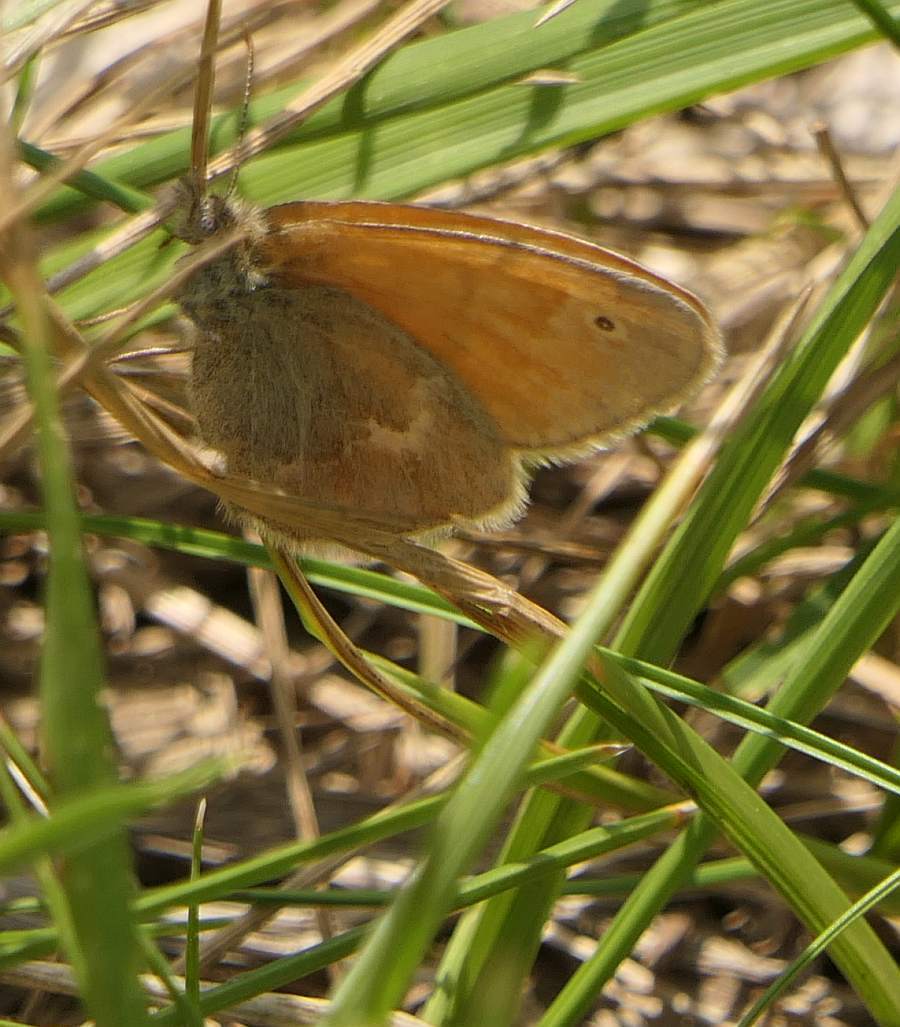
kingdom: Animalia
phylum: Arthropoda
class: Insecta
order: Lepidoptera
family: Nymphalidae
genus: Coenonympha
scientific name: Coenonympha california
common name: Common ringlet
